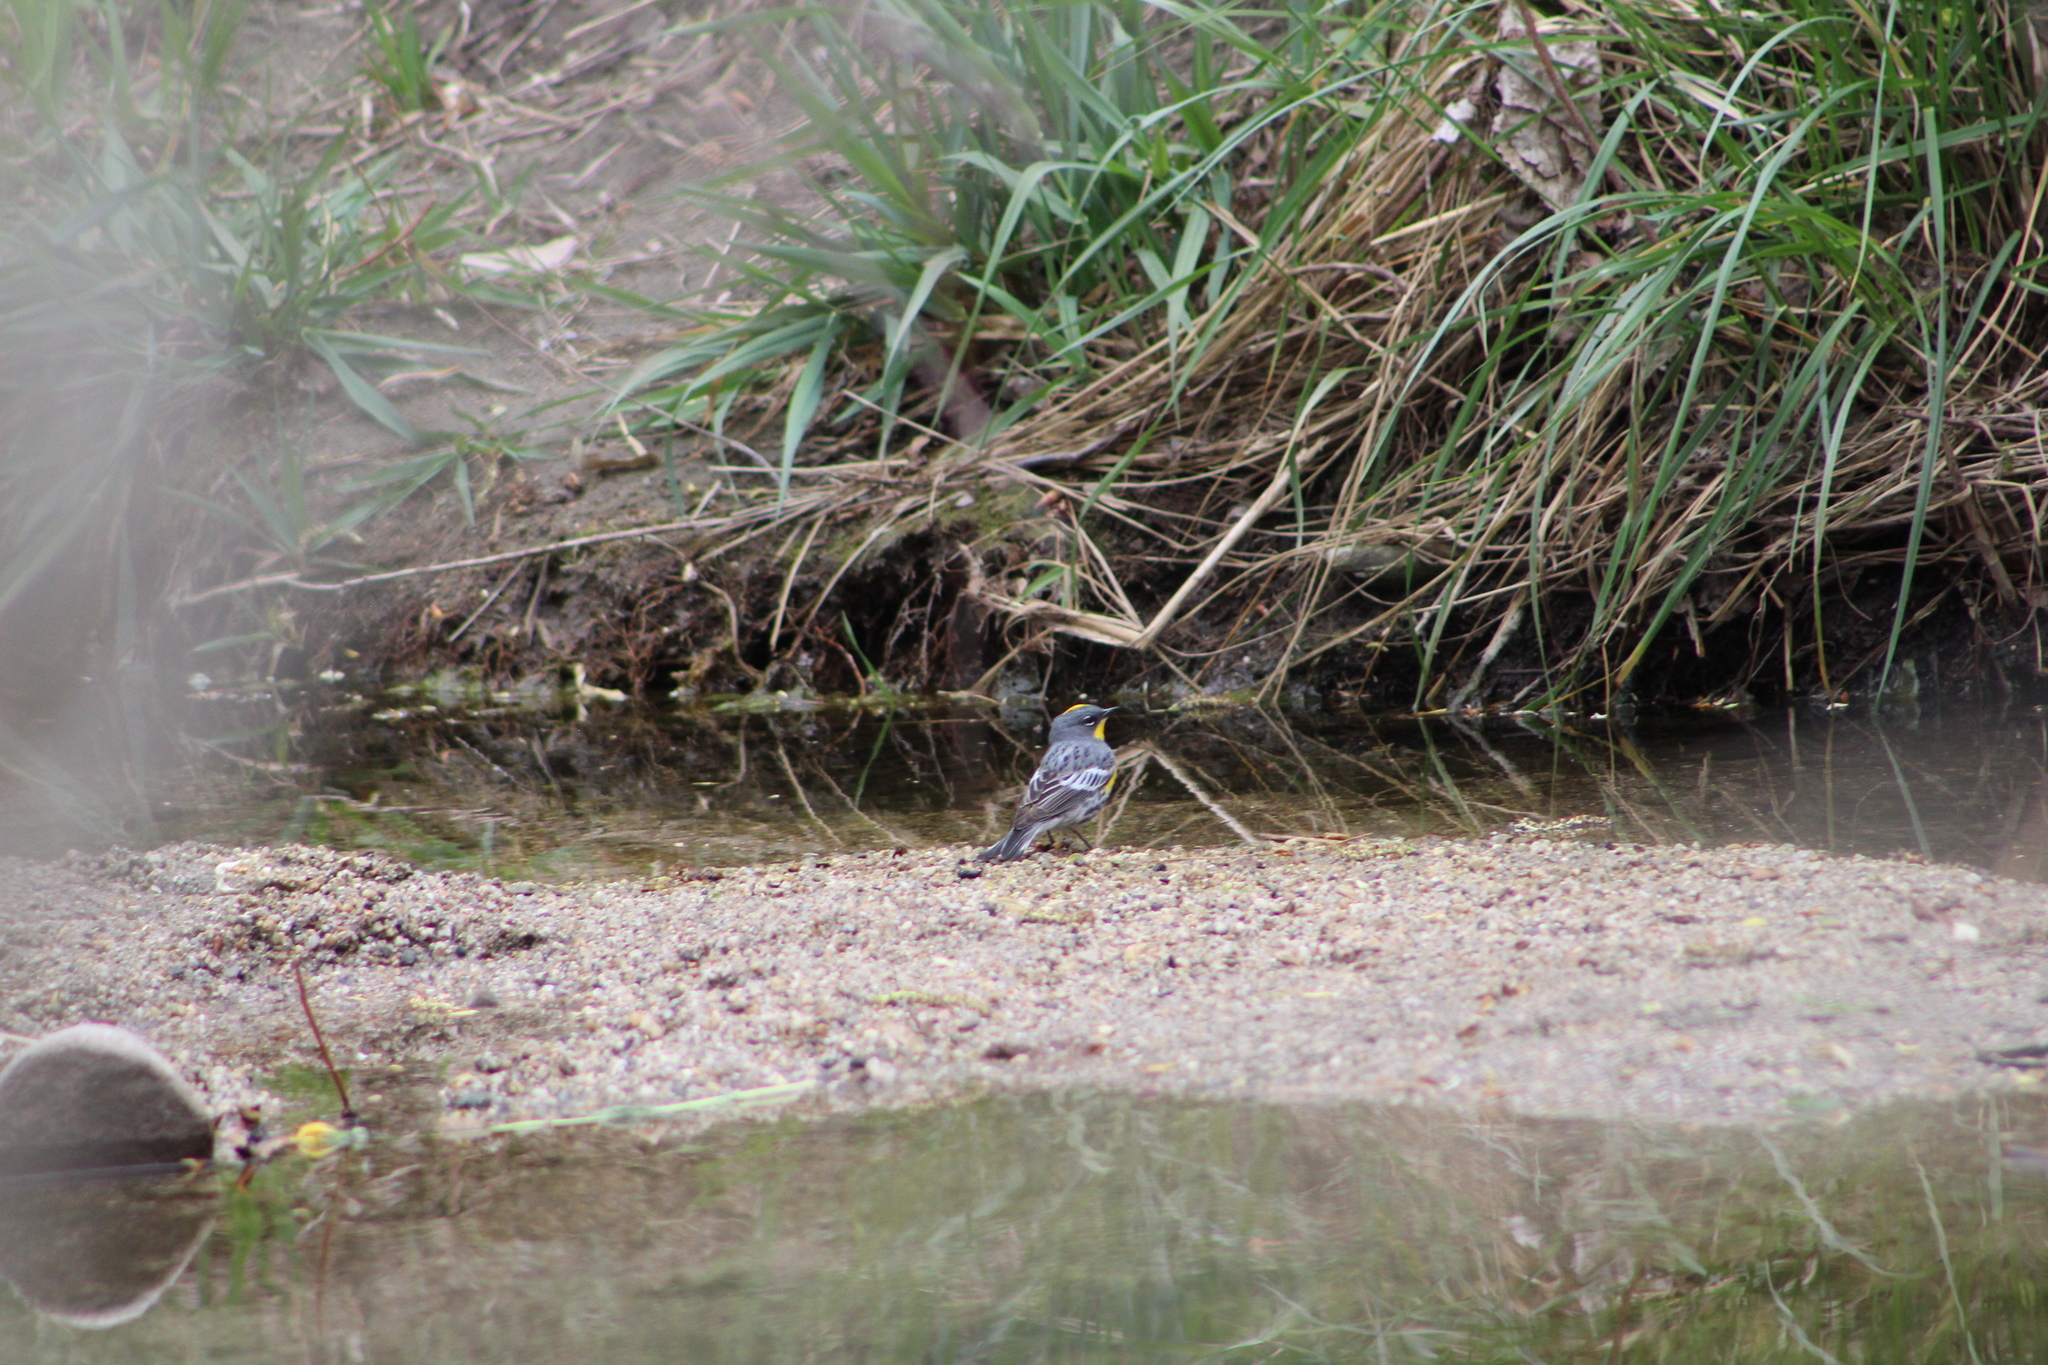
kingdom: Animalia
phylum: Chordata
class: Aves
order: Passeriformes
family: Parulidae
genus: Setophaga
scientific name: Setophaga coronata
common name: Myrtle warbler
